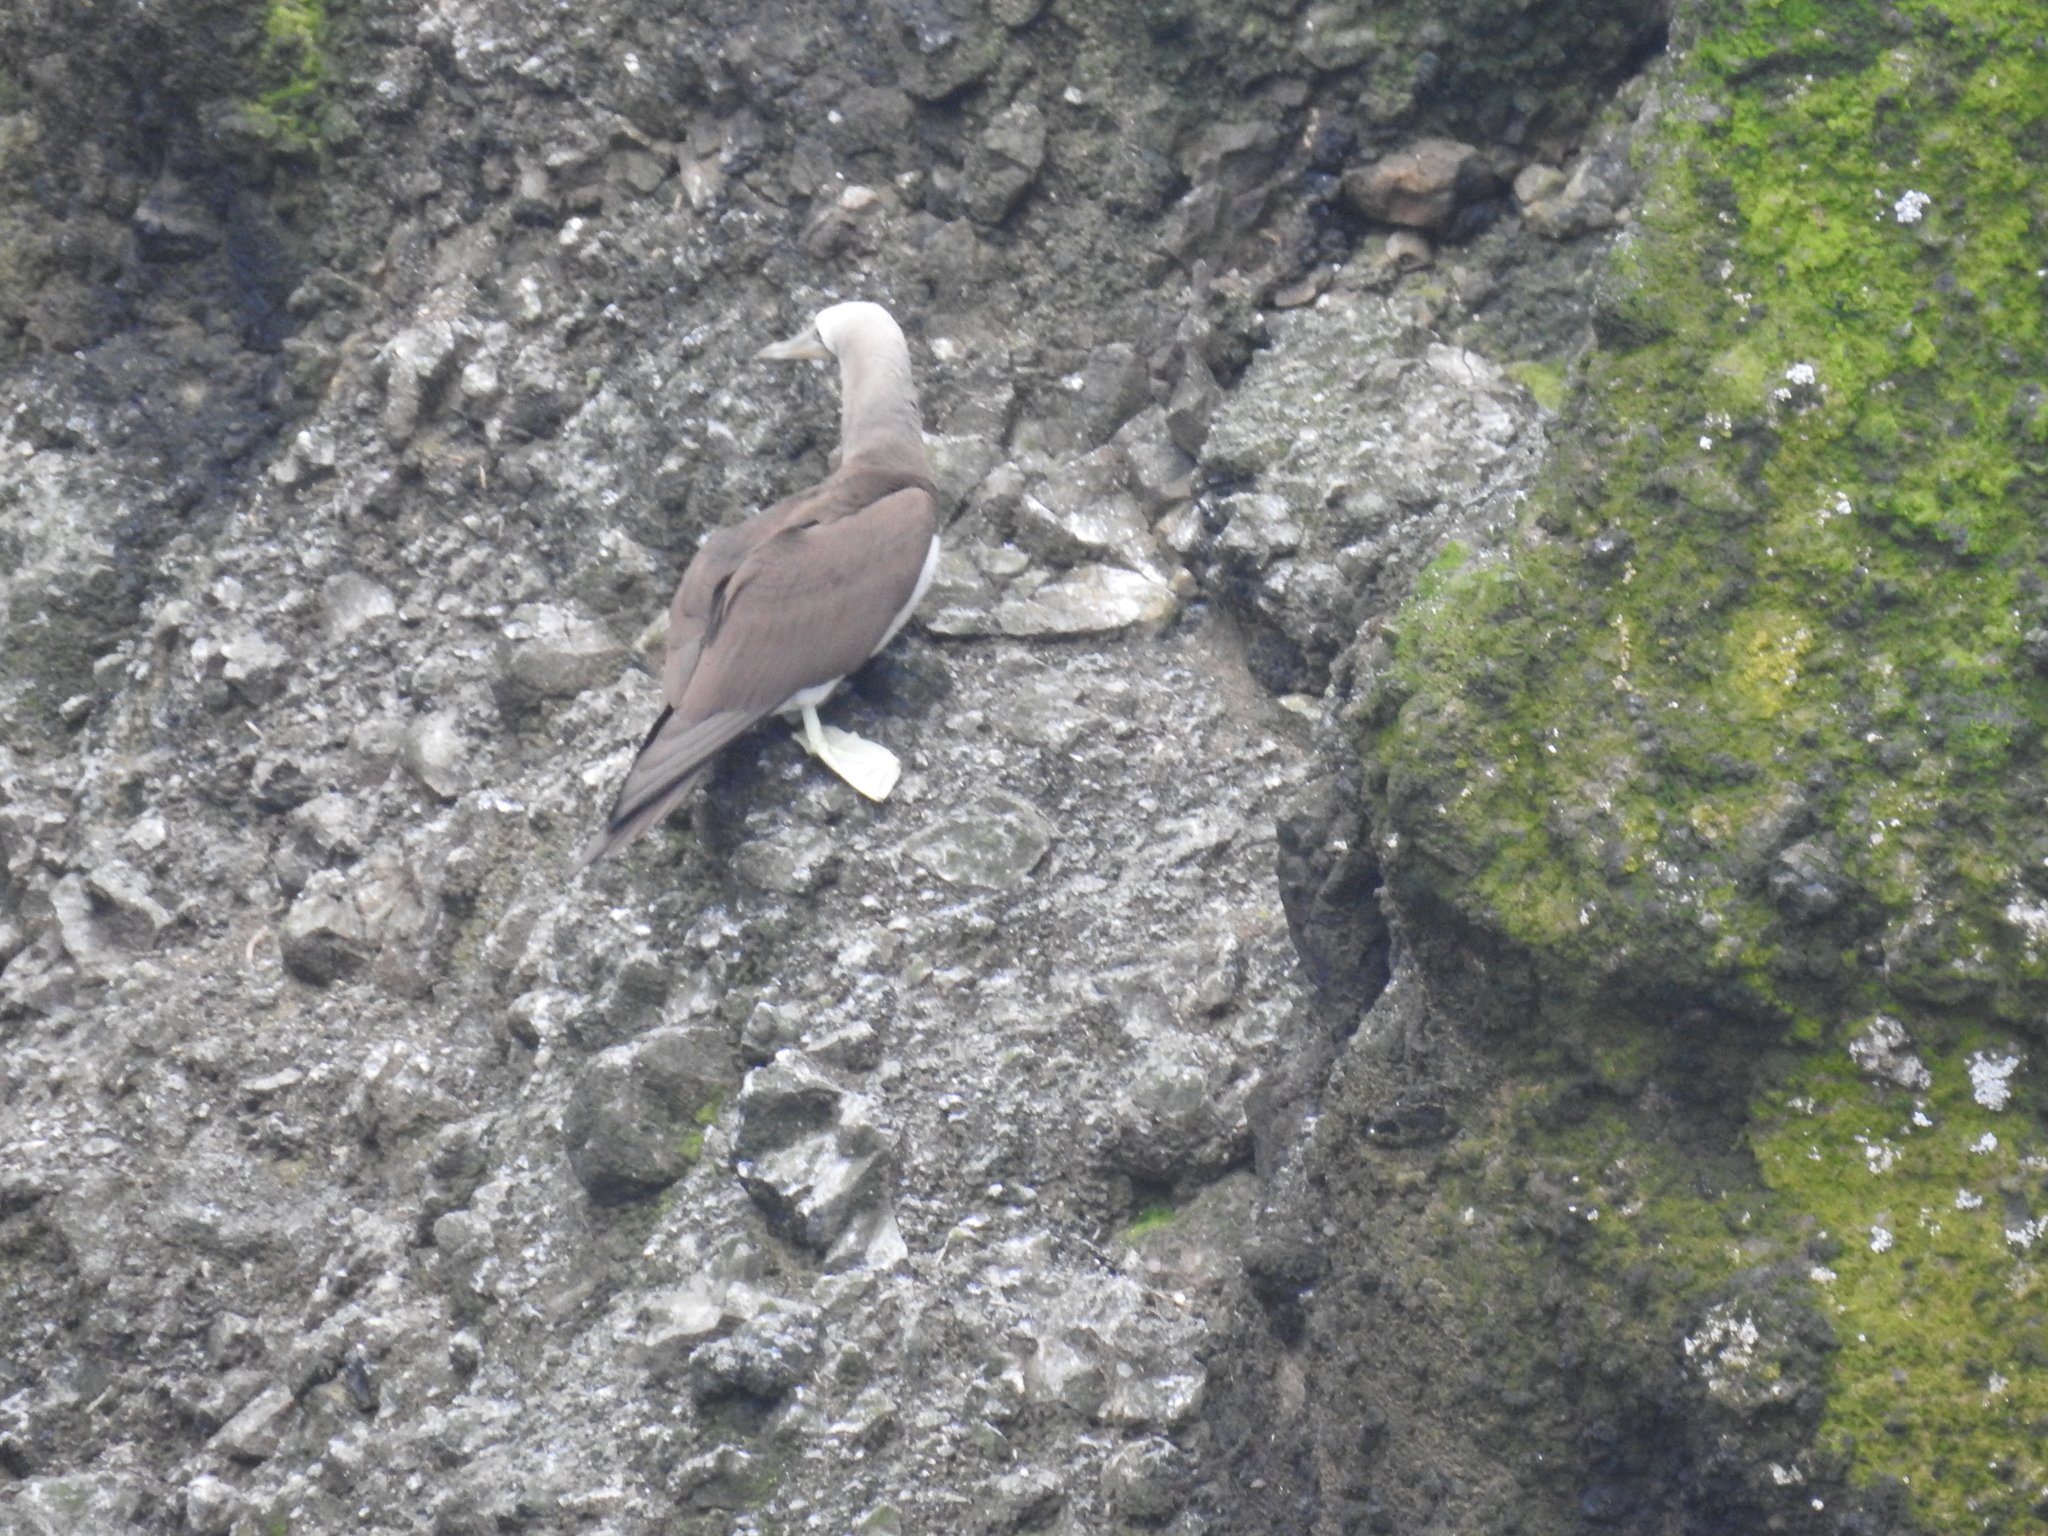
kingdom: Animalia
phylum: Chordata
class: Aves
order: Suliformes
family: Sulidae
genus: Sula
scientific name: Sula leucogaster
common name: Brown booby
